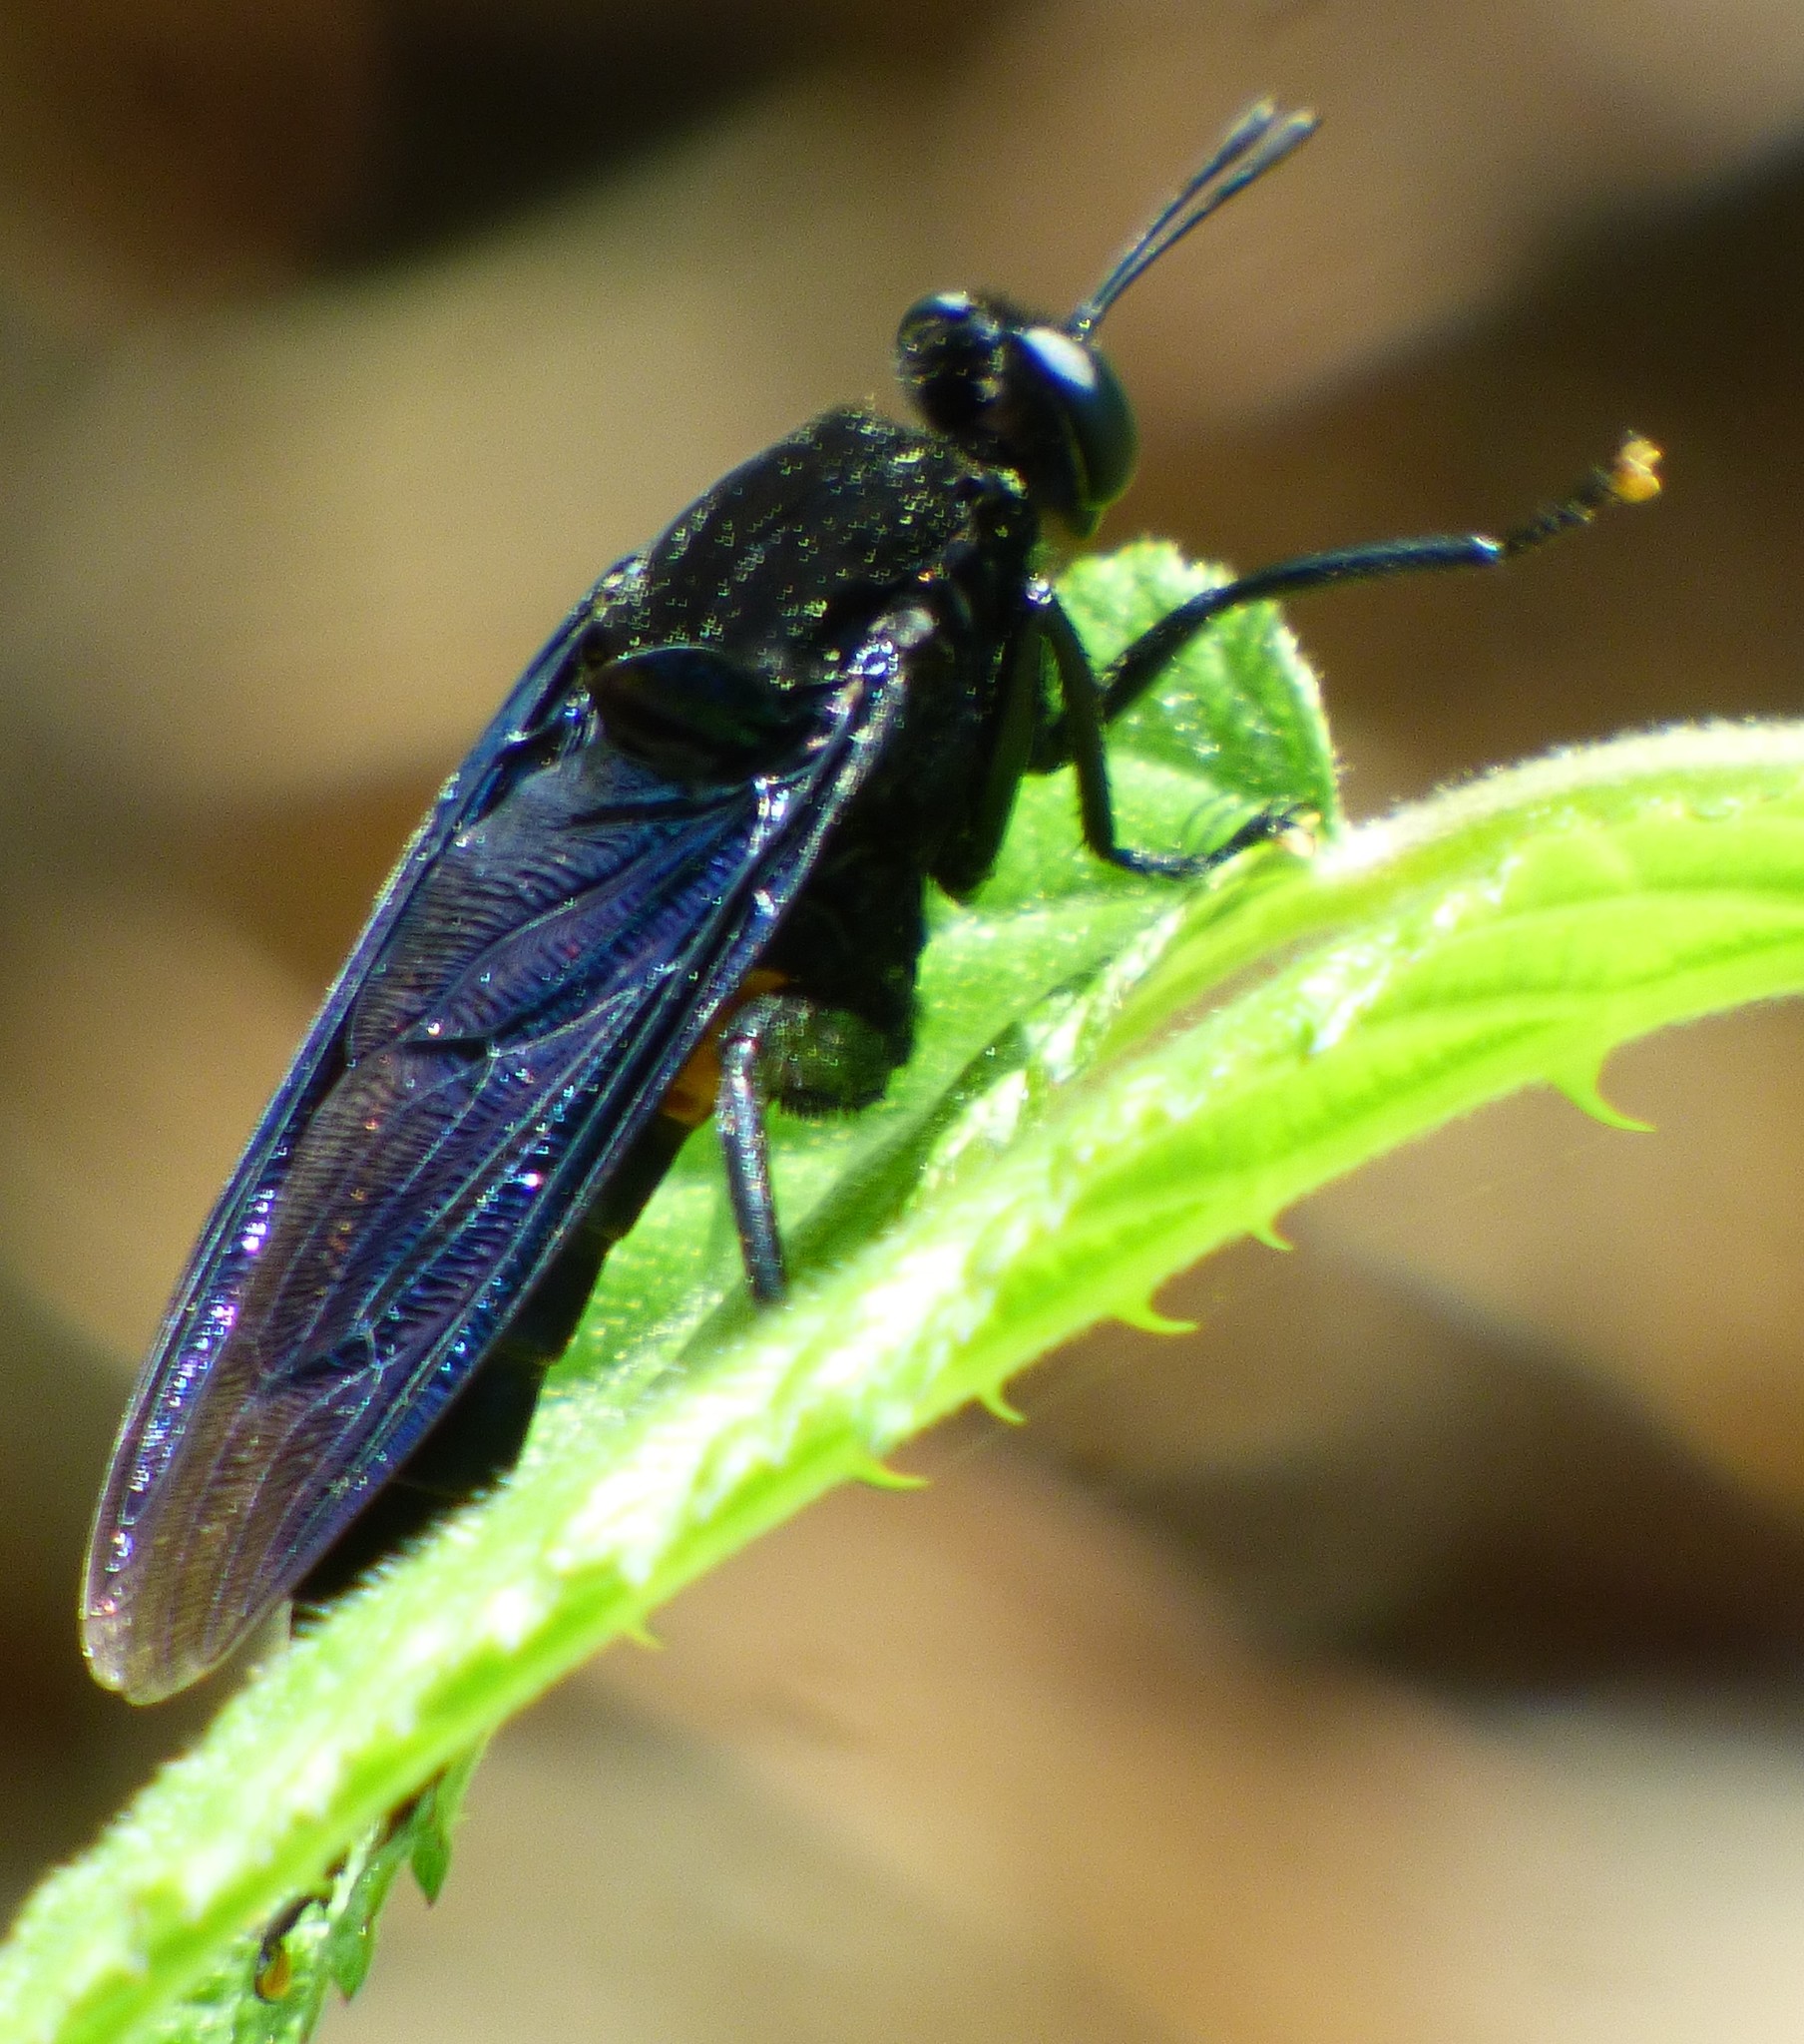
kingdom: Animalia
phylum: Arthropoda
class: Insecta
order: Diptera
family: Mydidae
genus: Mydas
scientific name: Mydas clavatus
